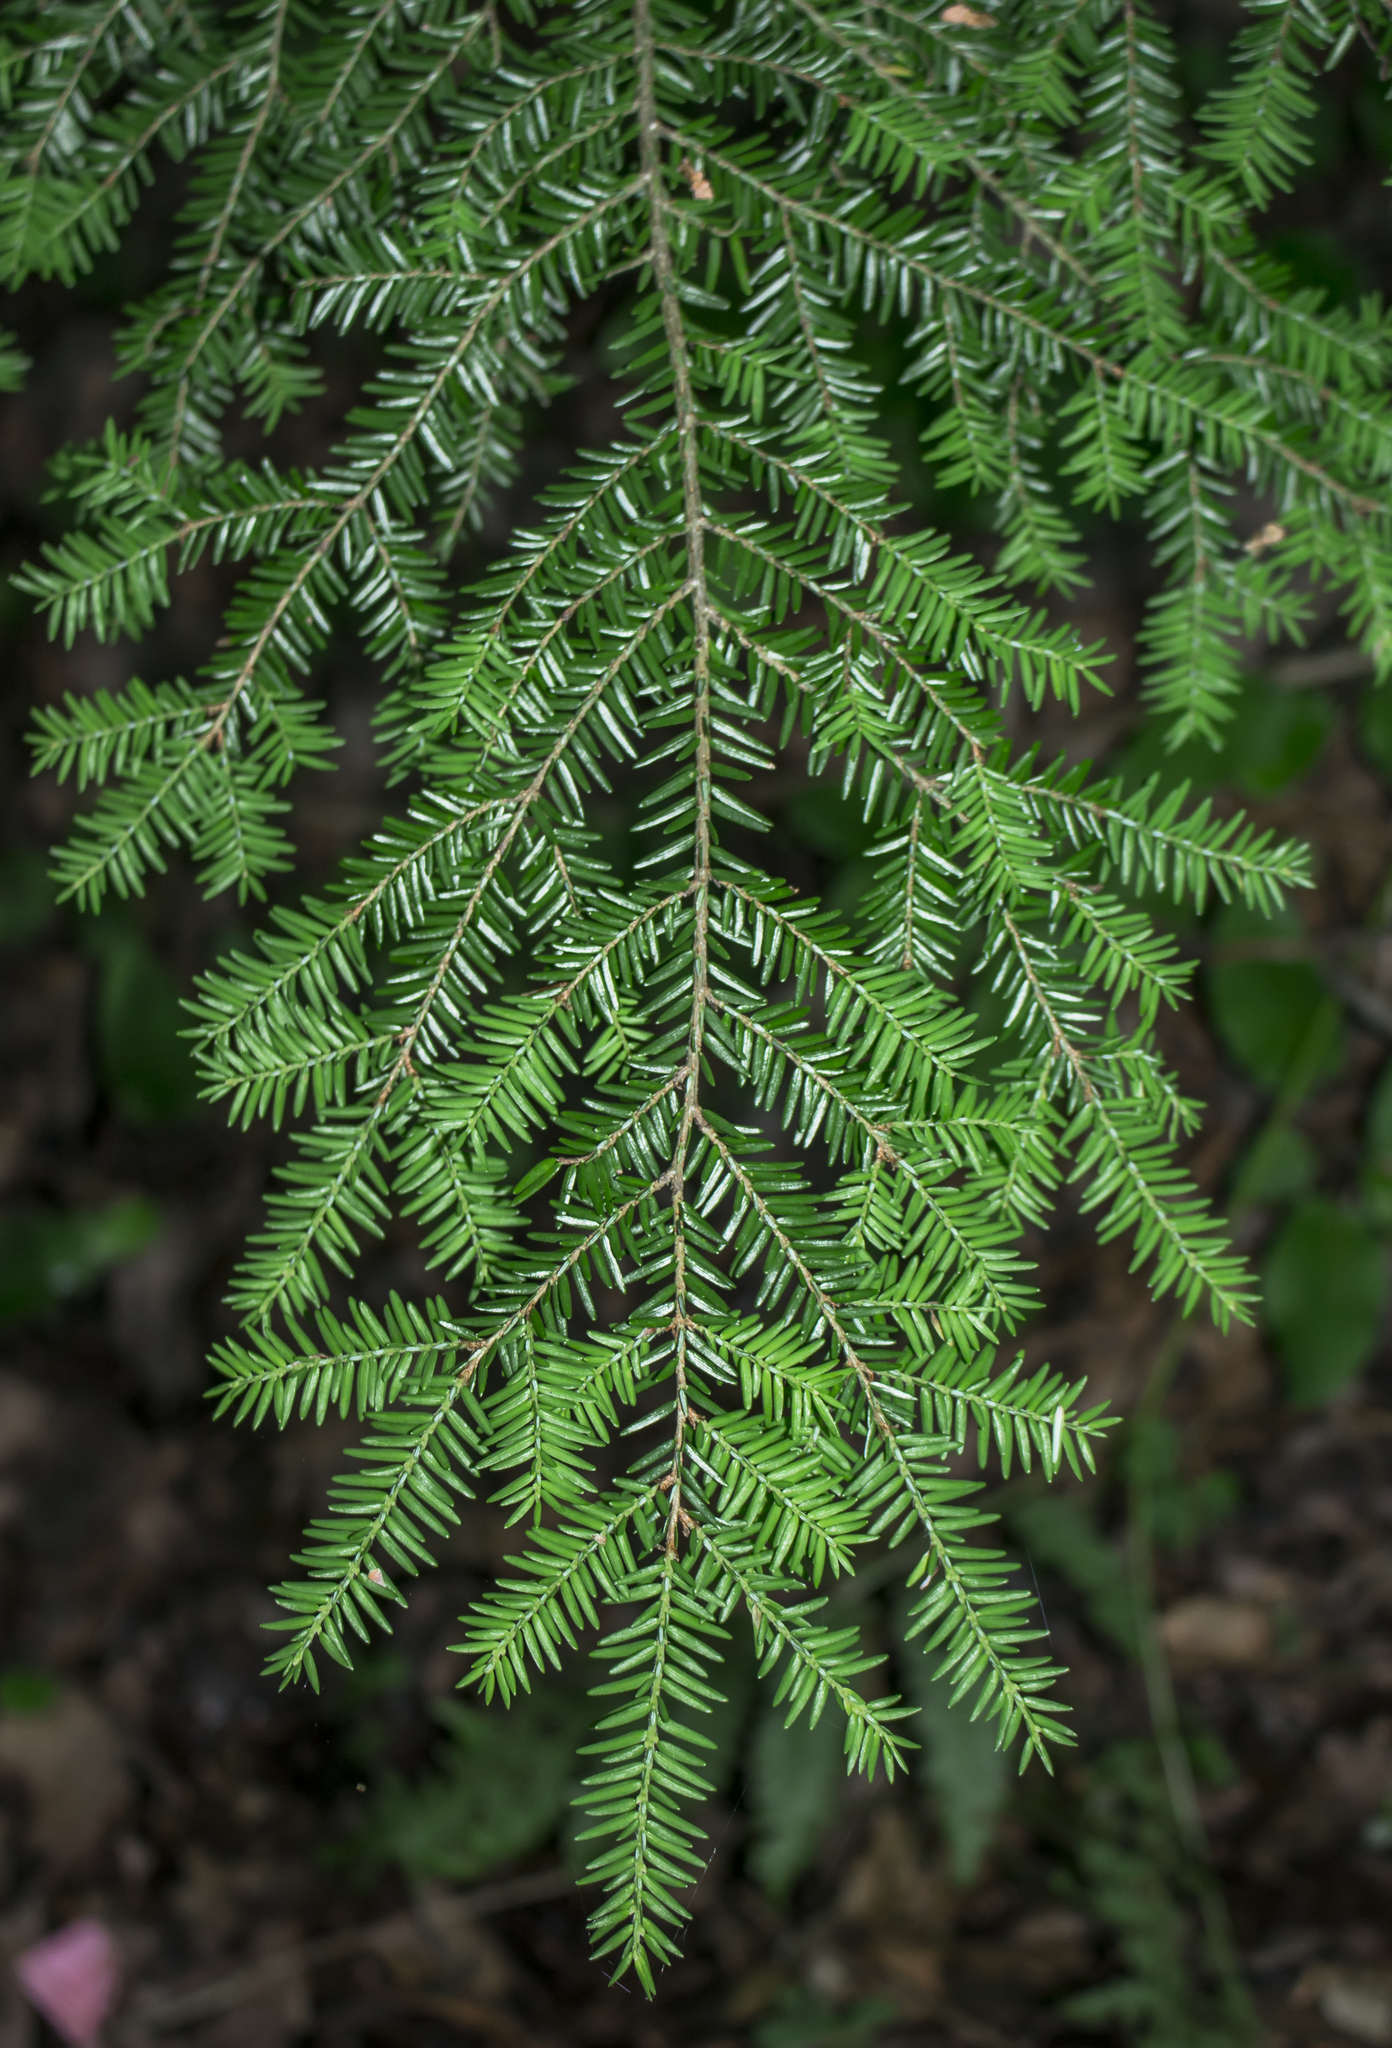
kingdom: Plantae
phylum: Tracheophyta
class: Pinopsida
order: Pinales
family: Pinaceae
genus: Tsuga
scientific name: Tsuga canadensis
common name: Eastern hemlock
